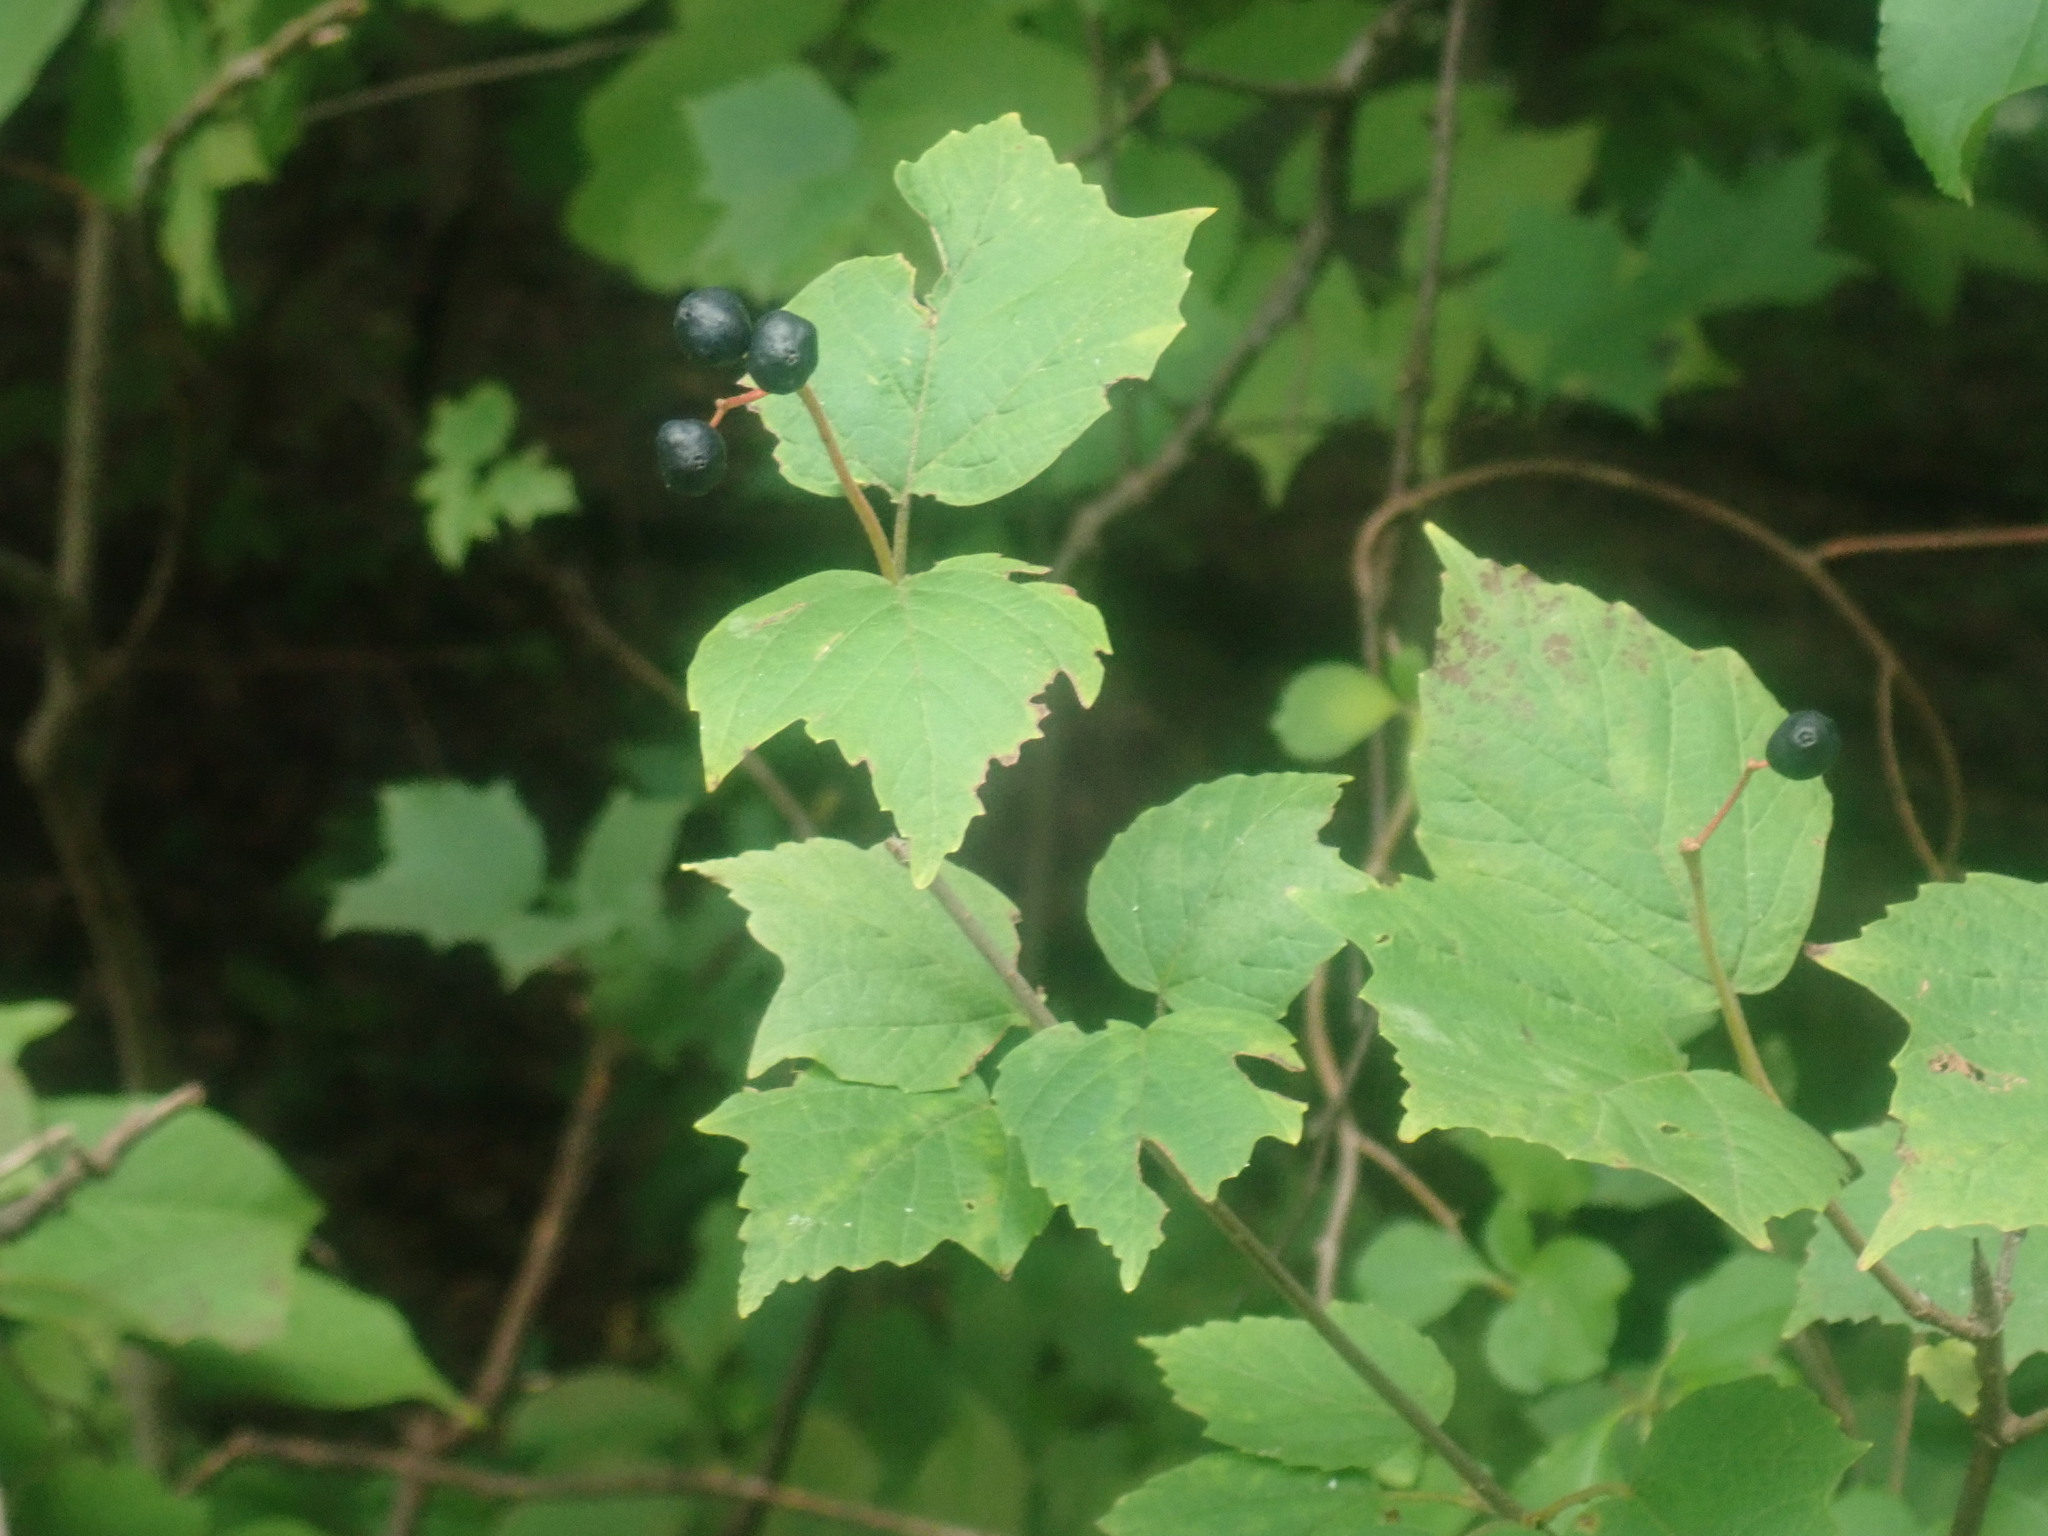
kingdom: Plantae
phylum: Tracheophyta
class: Magnoliopsida
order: Dipsacales
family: Viburnaceae
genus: Viburnum
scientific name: Viburnum acerifolium
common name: Dockmackie
